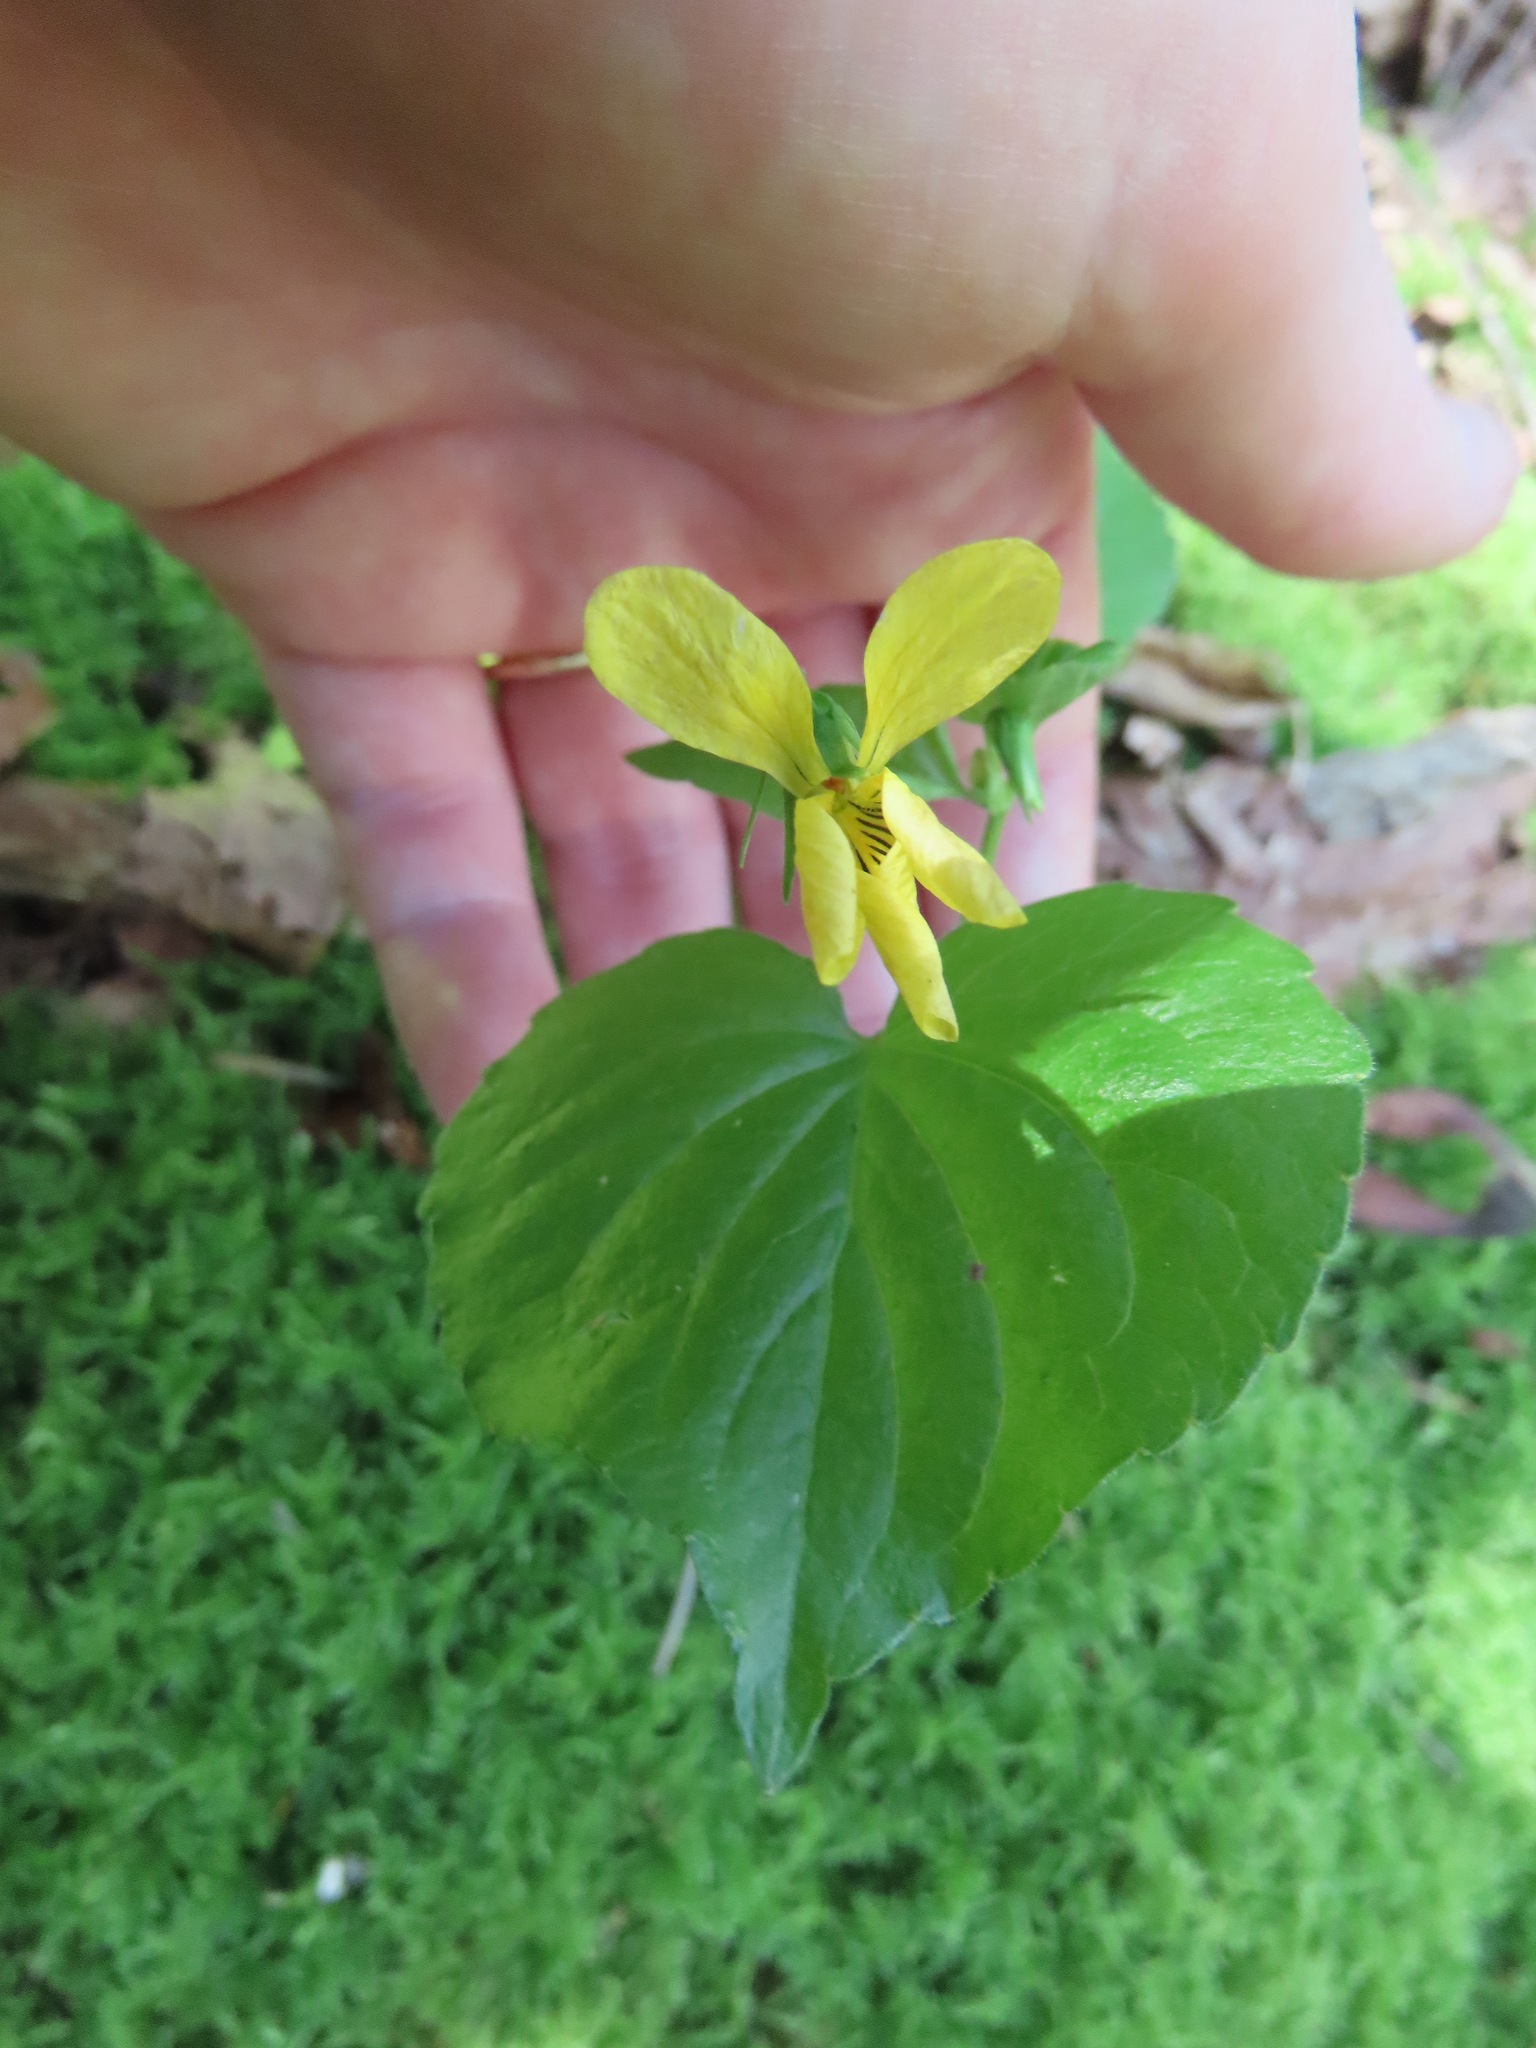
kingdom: Plantae
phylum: Tracheophyta
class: Magnoliopsida
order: Malpighiales
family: Violaceae
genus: Viola
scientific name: Viola glabella
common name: Stream violet
